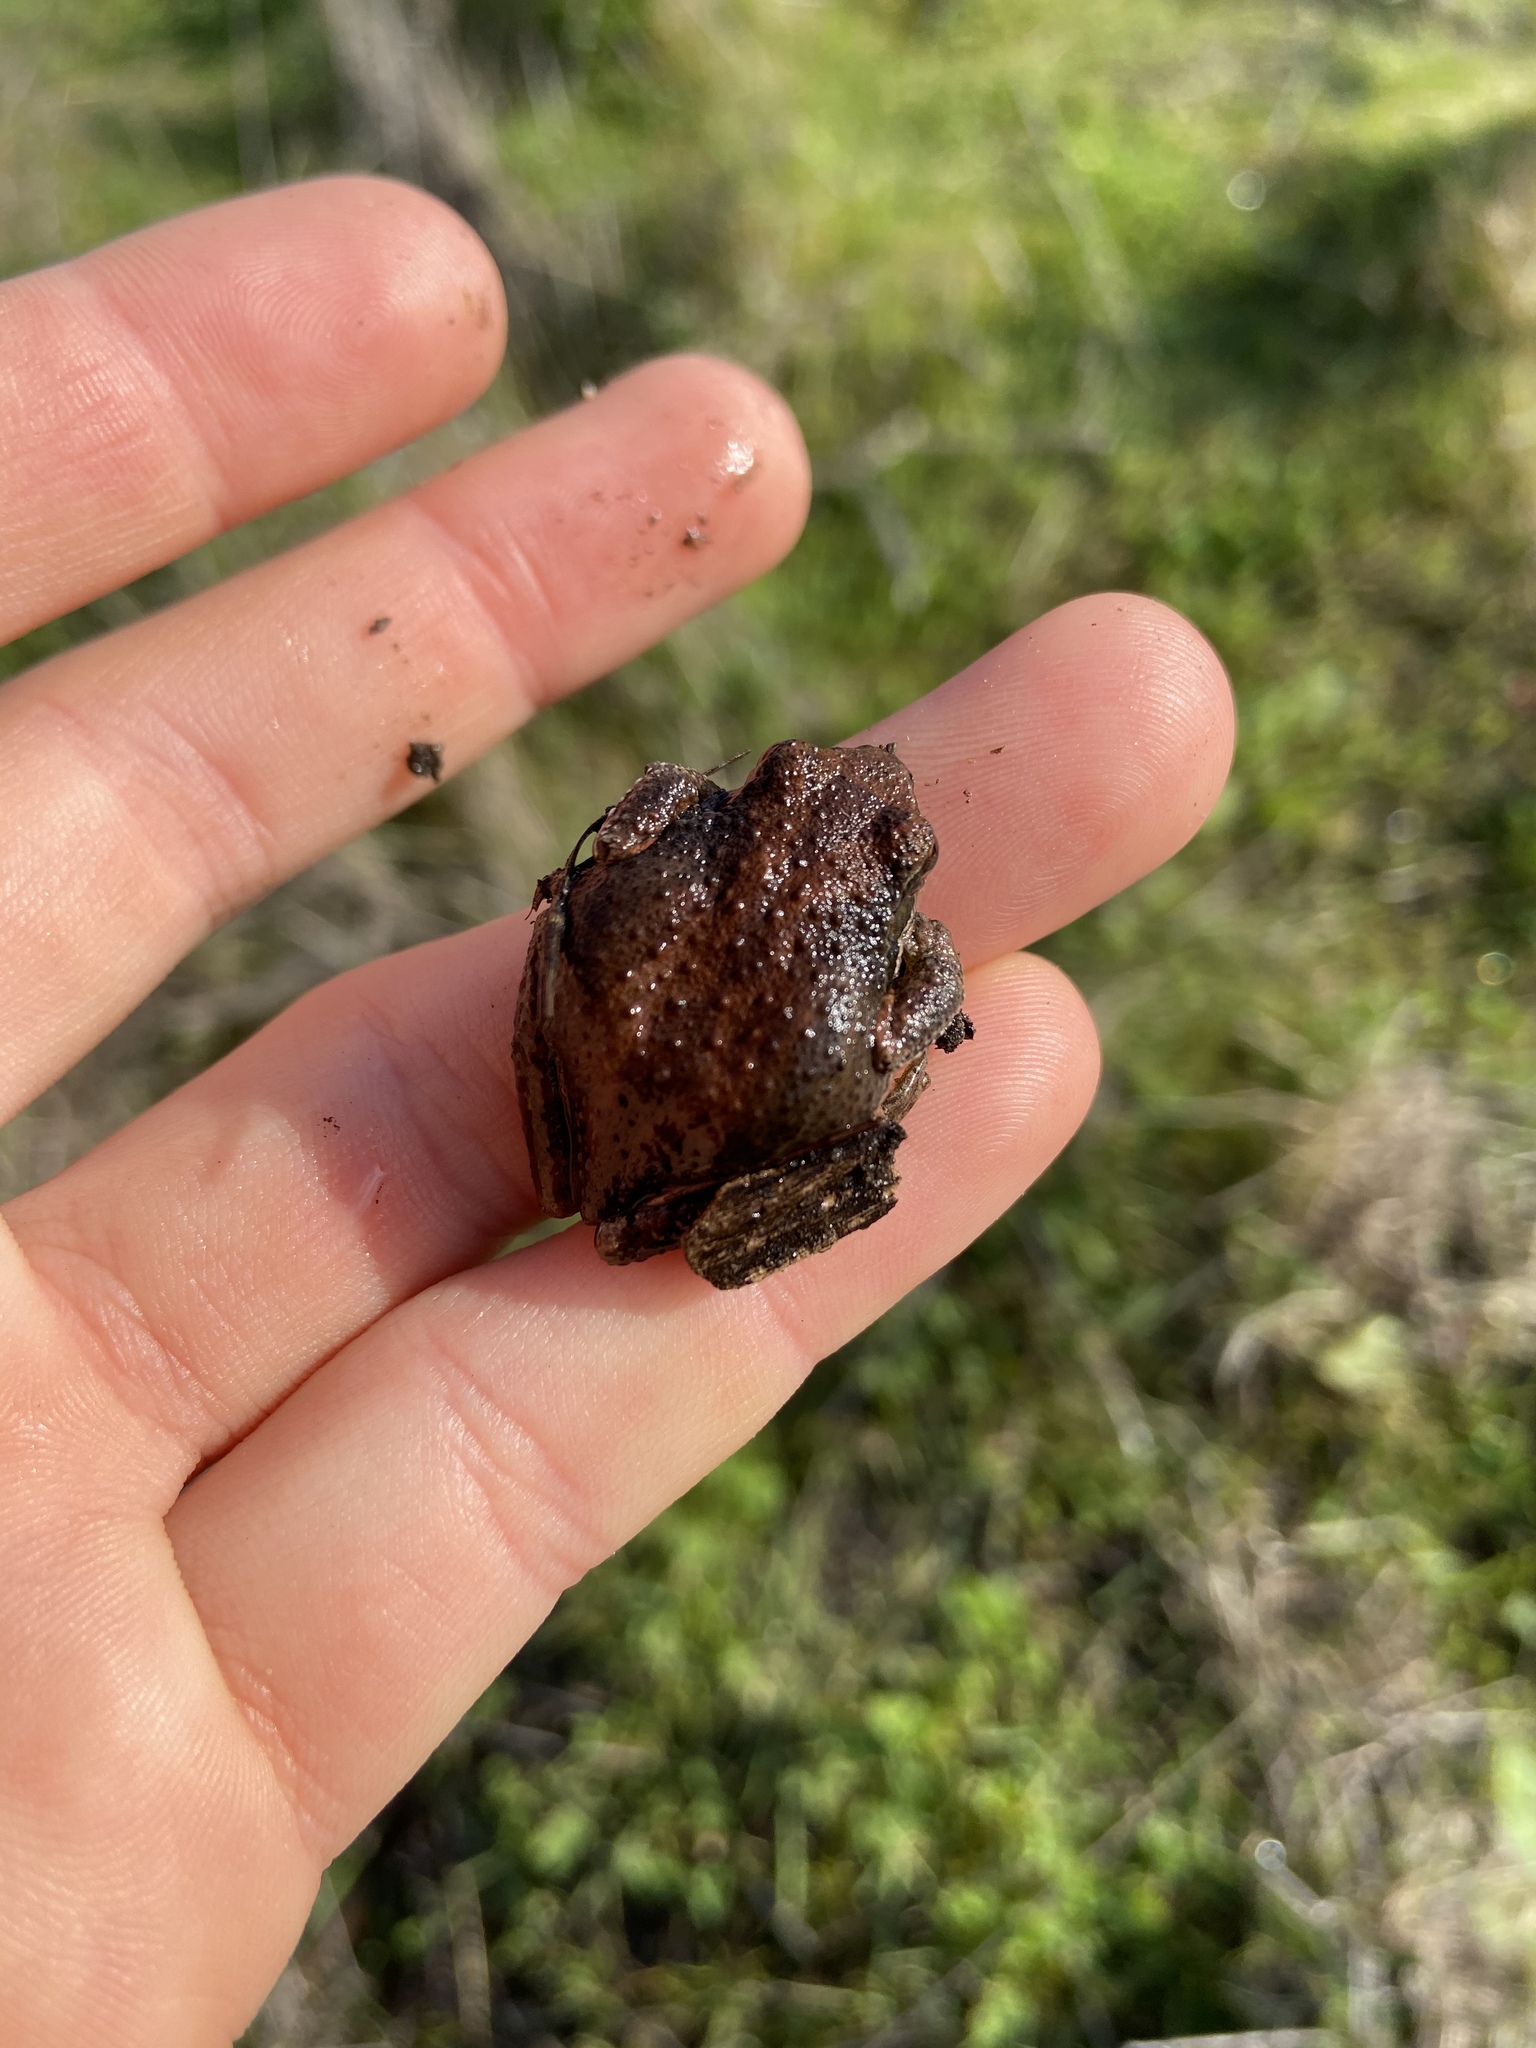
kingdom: Animalia
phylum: Chordata
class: Amphibia
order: Anura
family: Hylidae
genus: Pseudacris
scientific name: Pseudacris regilla
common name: Pacific chorus frog
